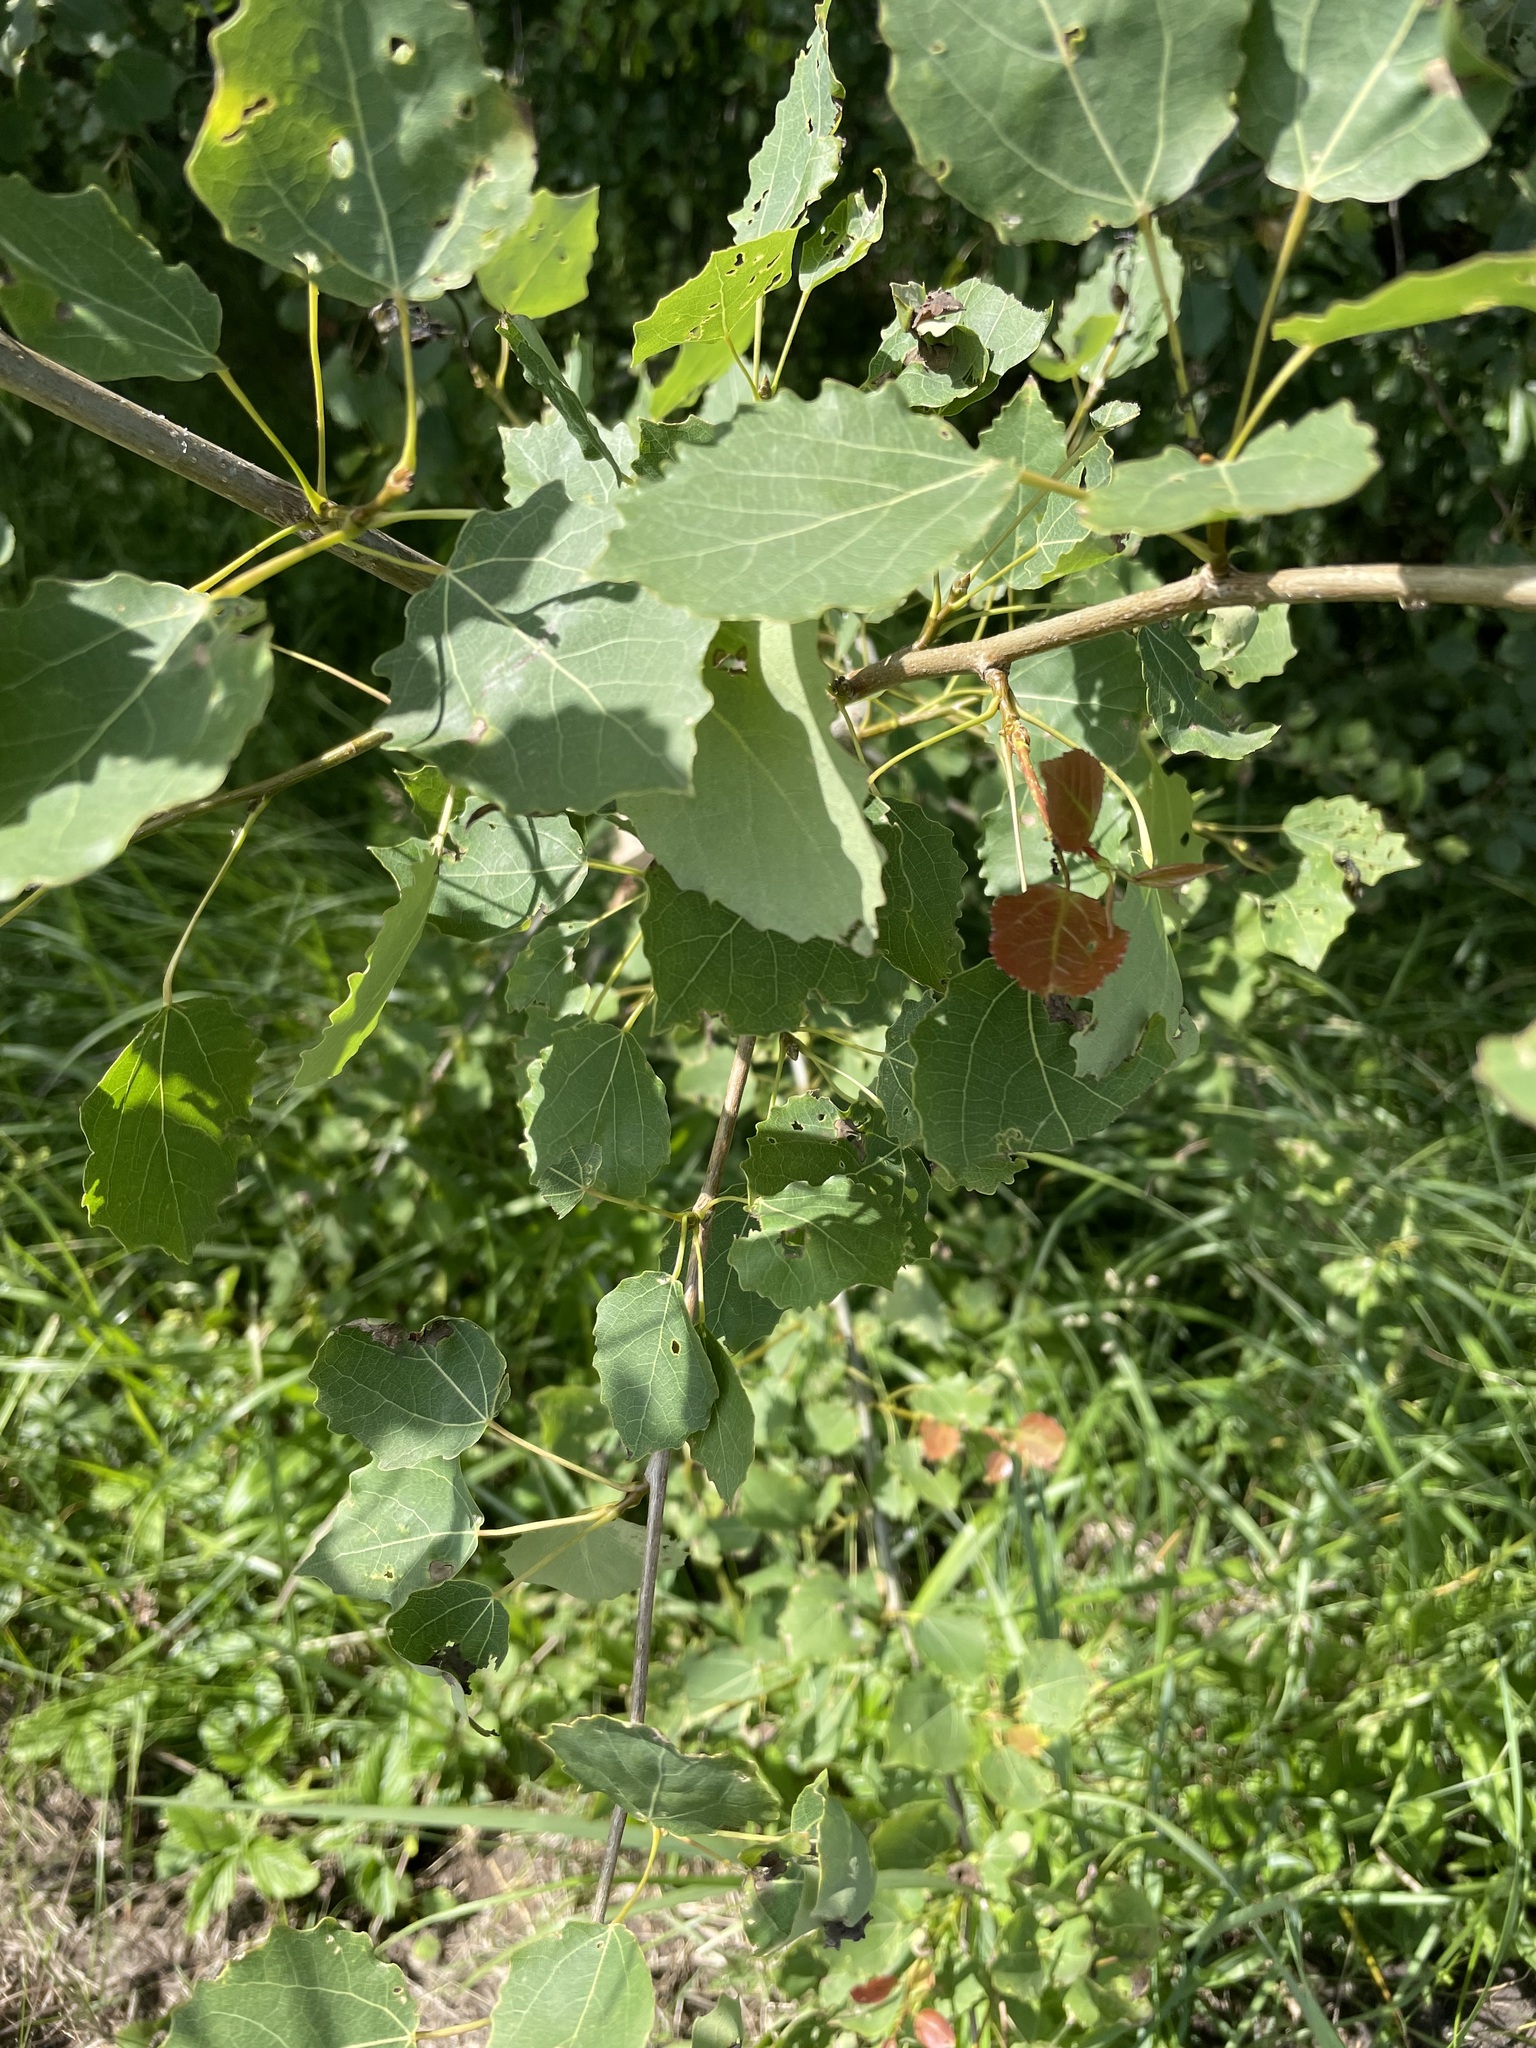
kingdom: Plantae
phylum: Tracheophyta
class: Magnoliopsida
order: Malpighiales
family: Salicaceae
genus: Populus
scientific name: Populus tremula
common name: European aspen
